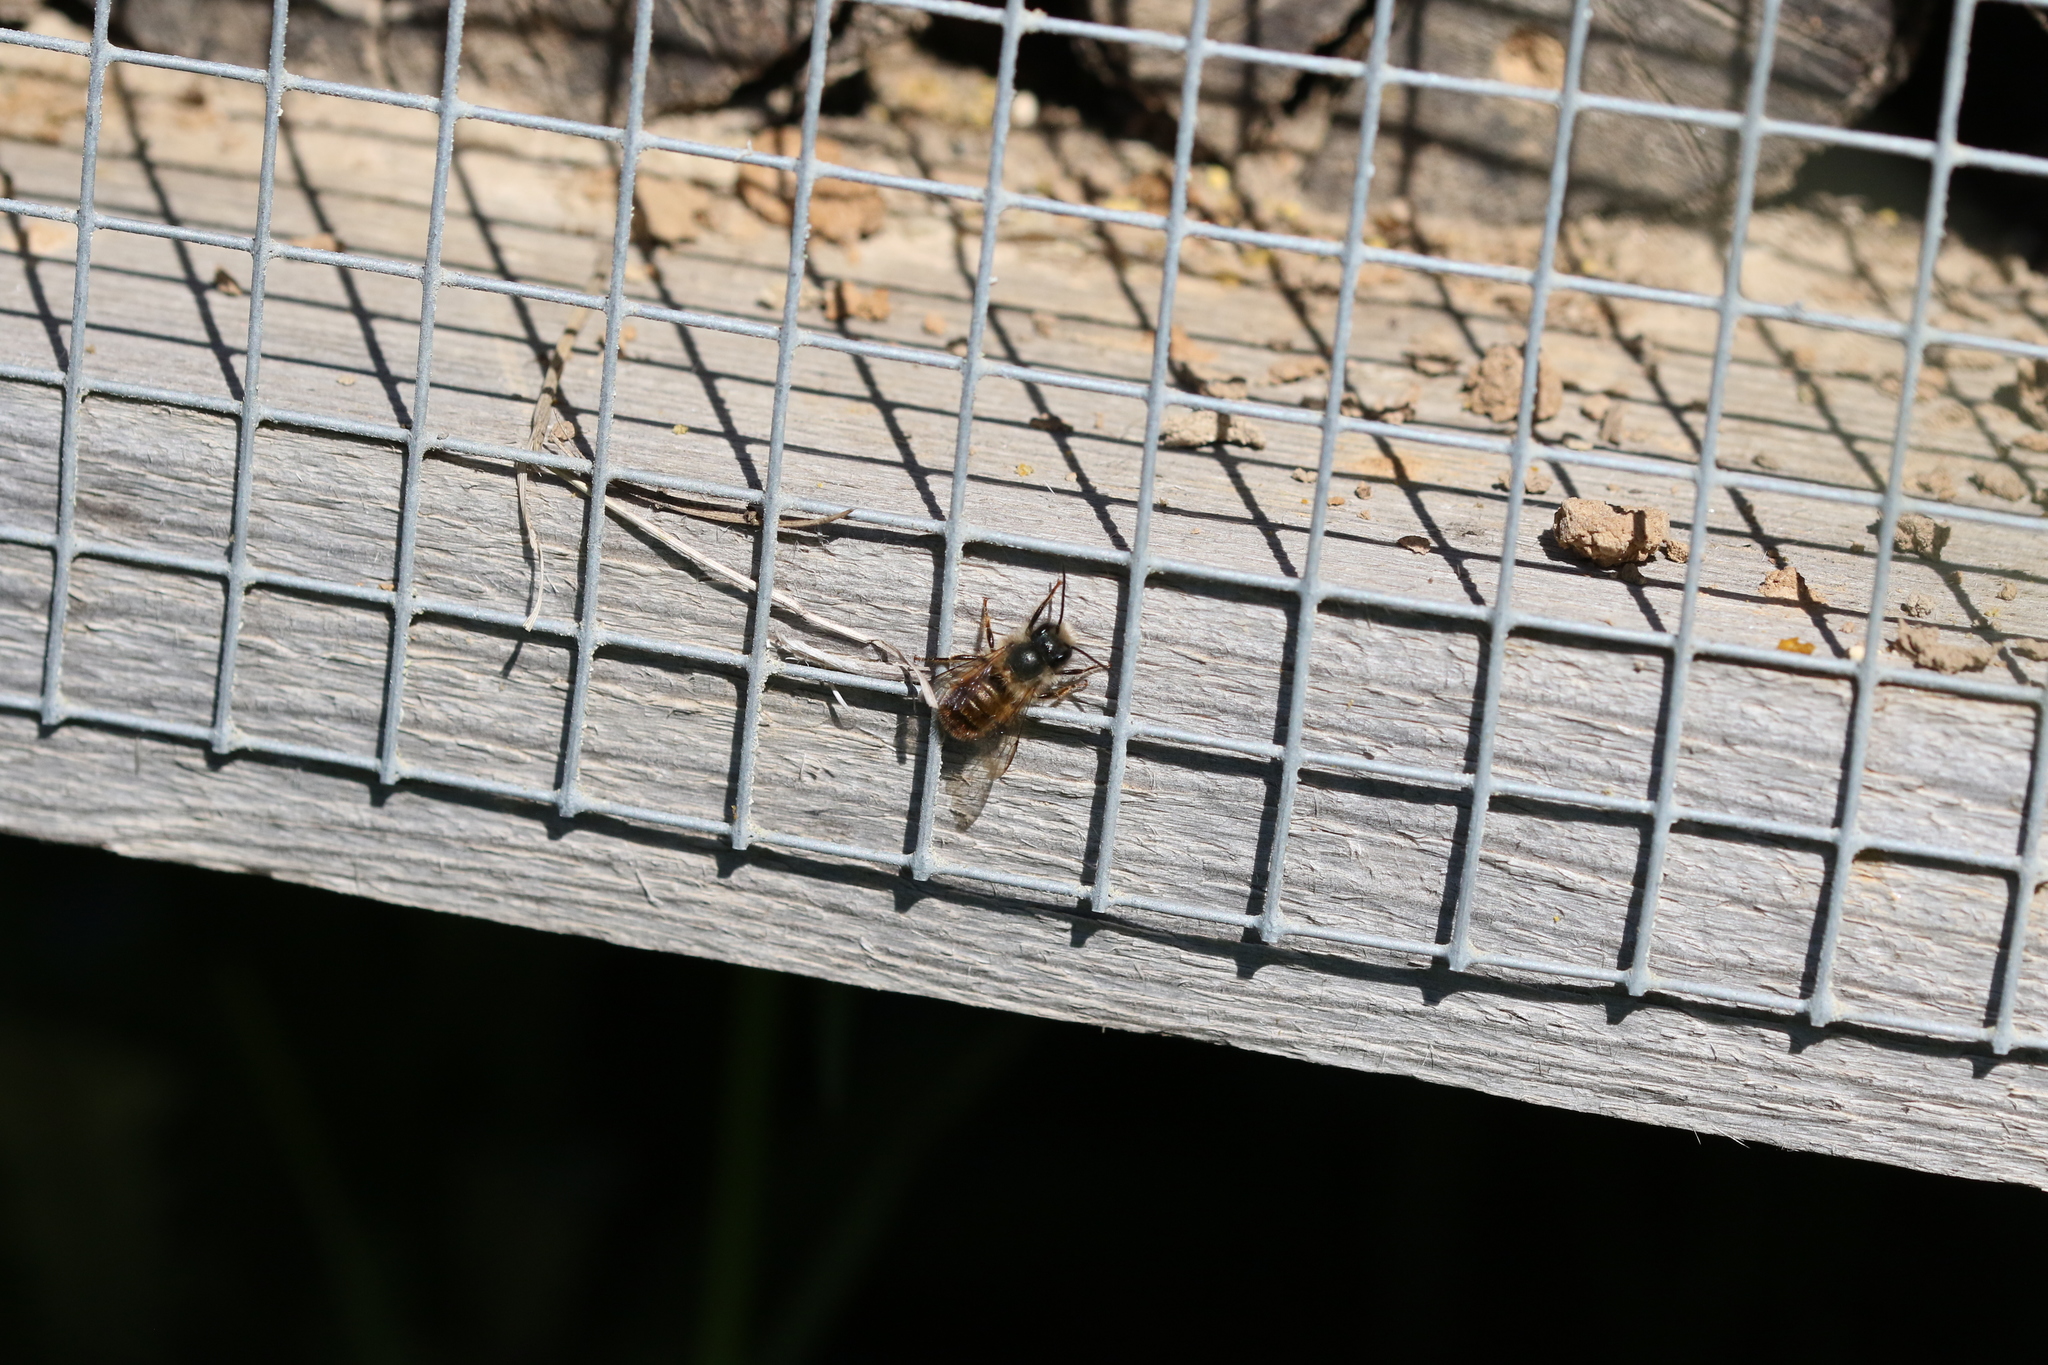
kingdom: Animalia
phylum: Arthropoda
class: Insecta
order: Hymenoptera
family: Megachilidae
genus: Osmia
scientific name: Osmia bicornis
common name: Red mason bee
